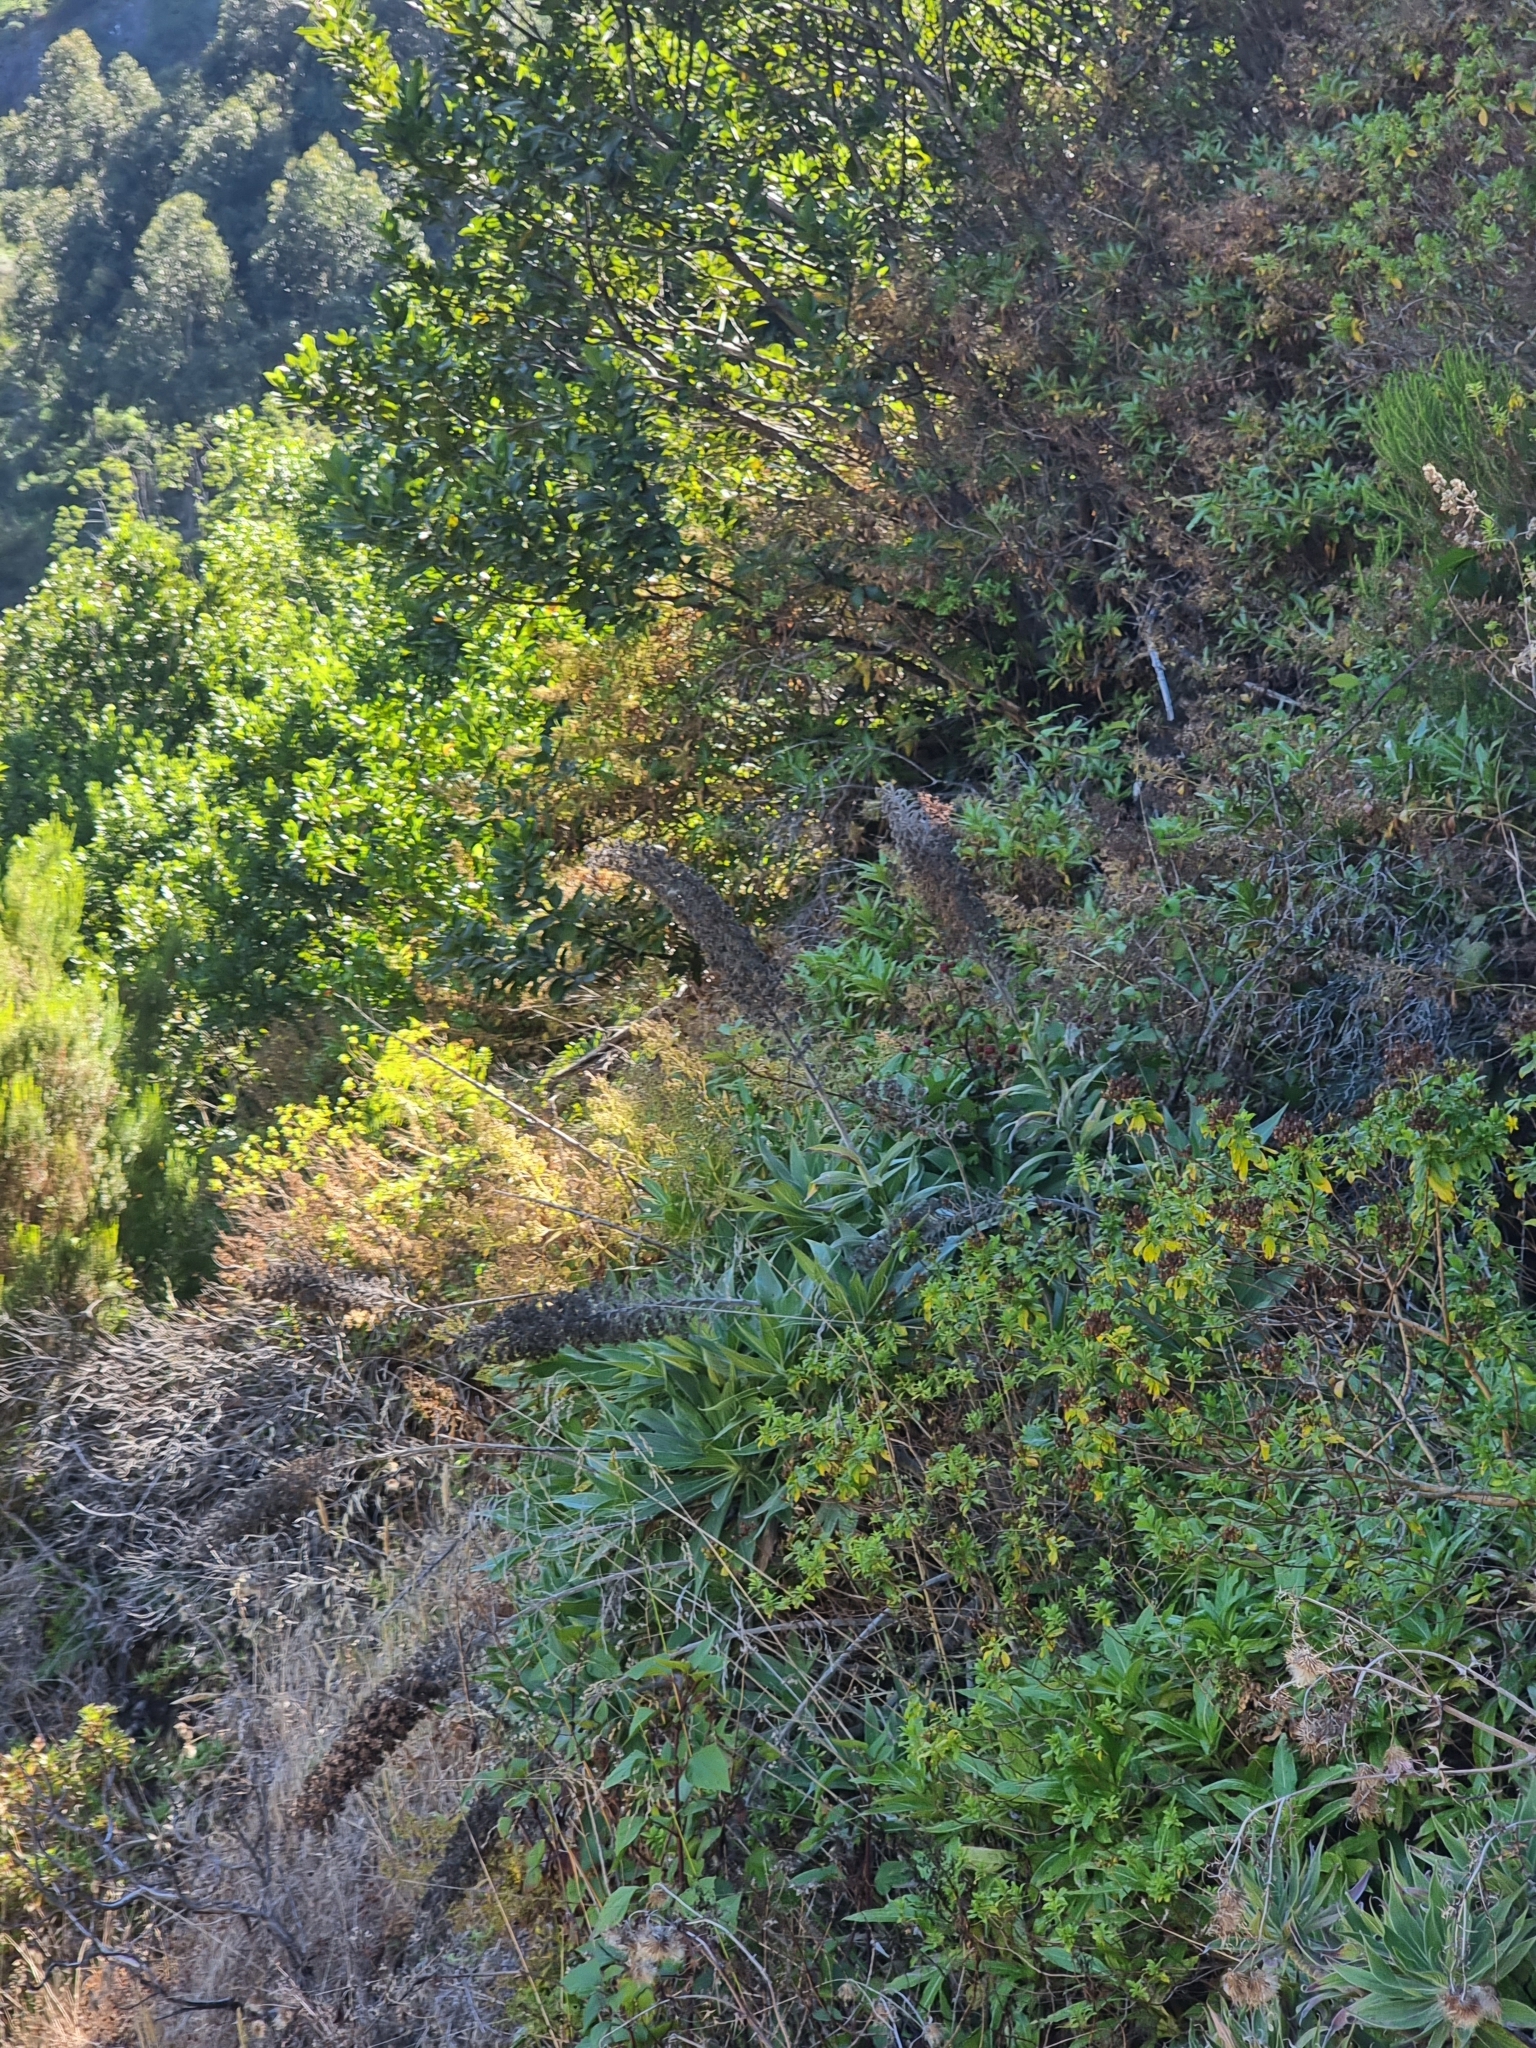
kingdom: Plantae
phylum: Tracheophyta
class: Magnoliopsida
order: Boraginales
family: Boraginaceae
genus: Echium
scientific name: Echium candicans
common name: Pride of madeira
